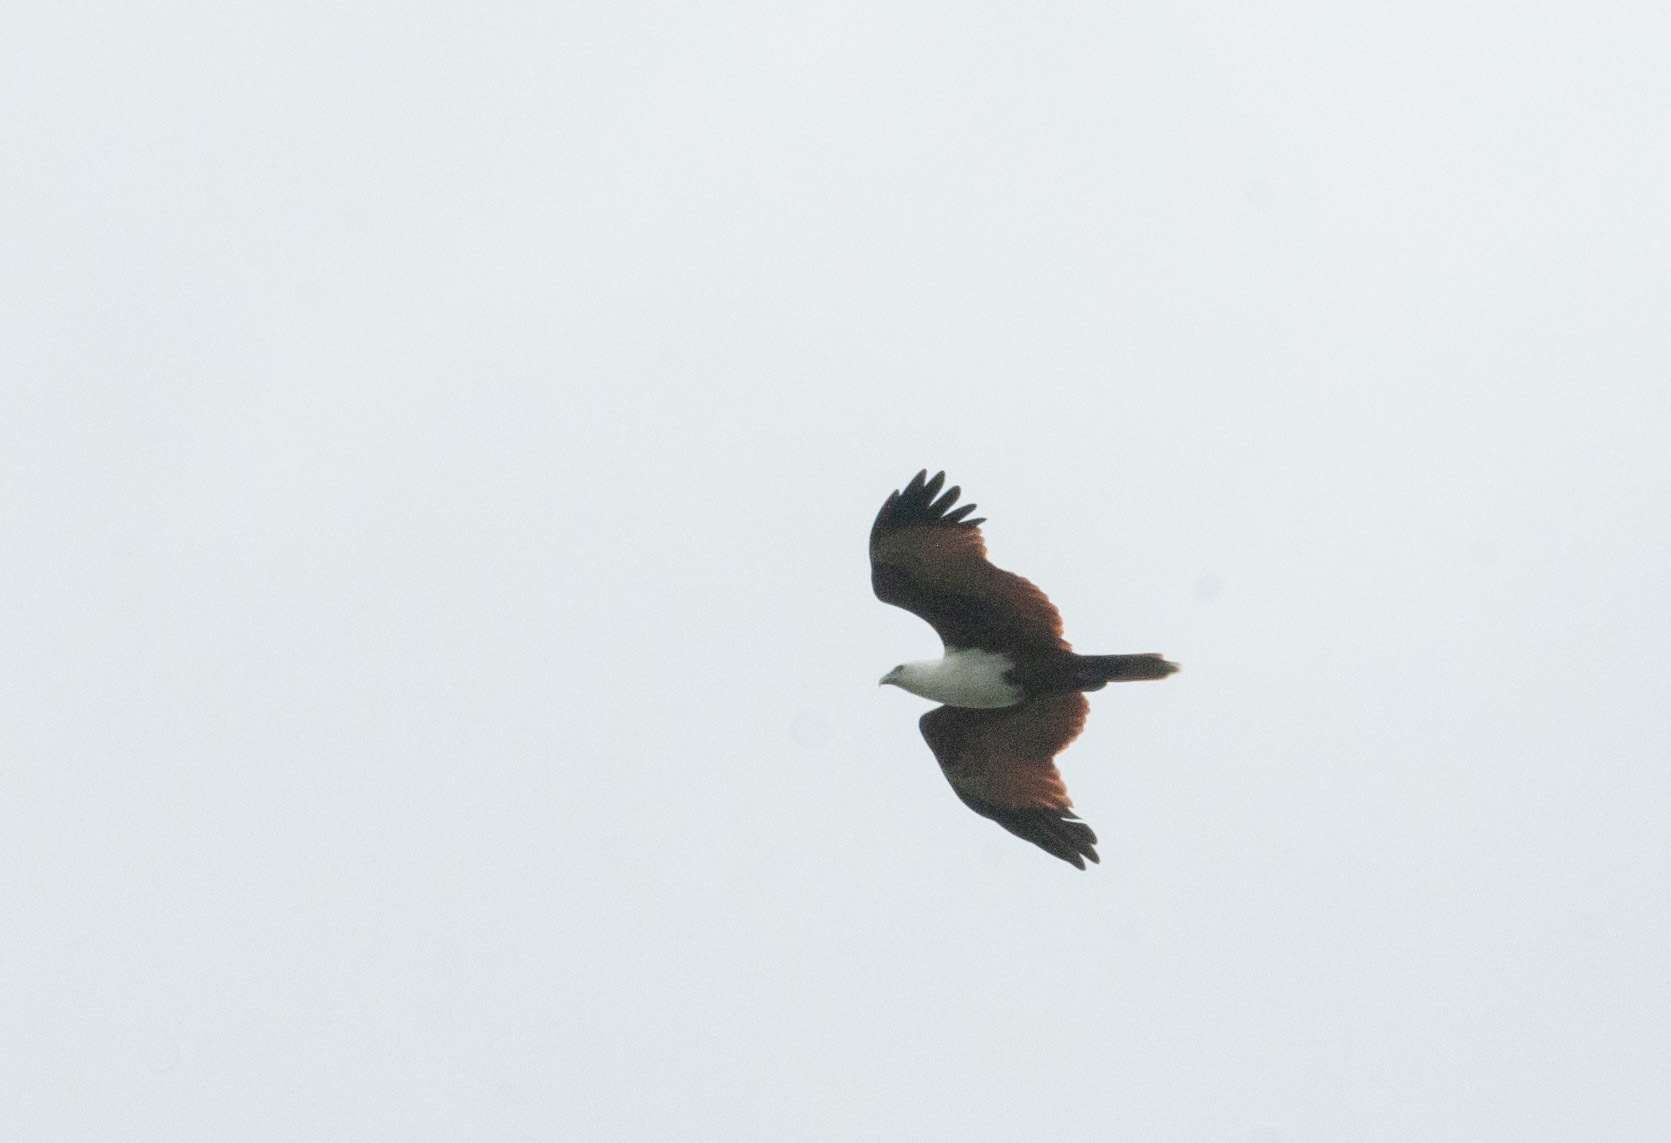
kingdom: Animalia
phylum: Chordata
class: Aves
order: Accipitriformes
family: Accipitridae
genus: Haliastur
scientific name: Haliastur indus
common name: Brahminy kite
